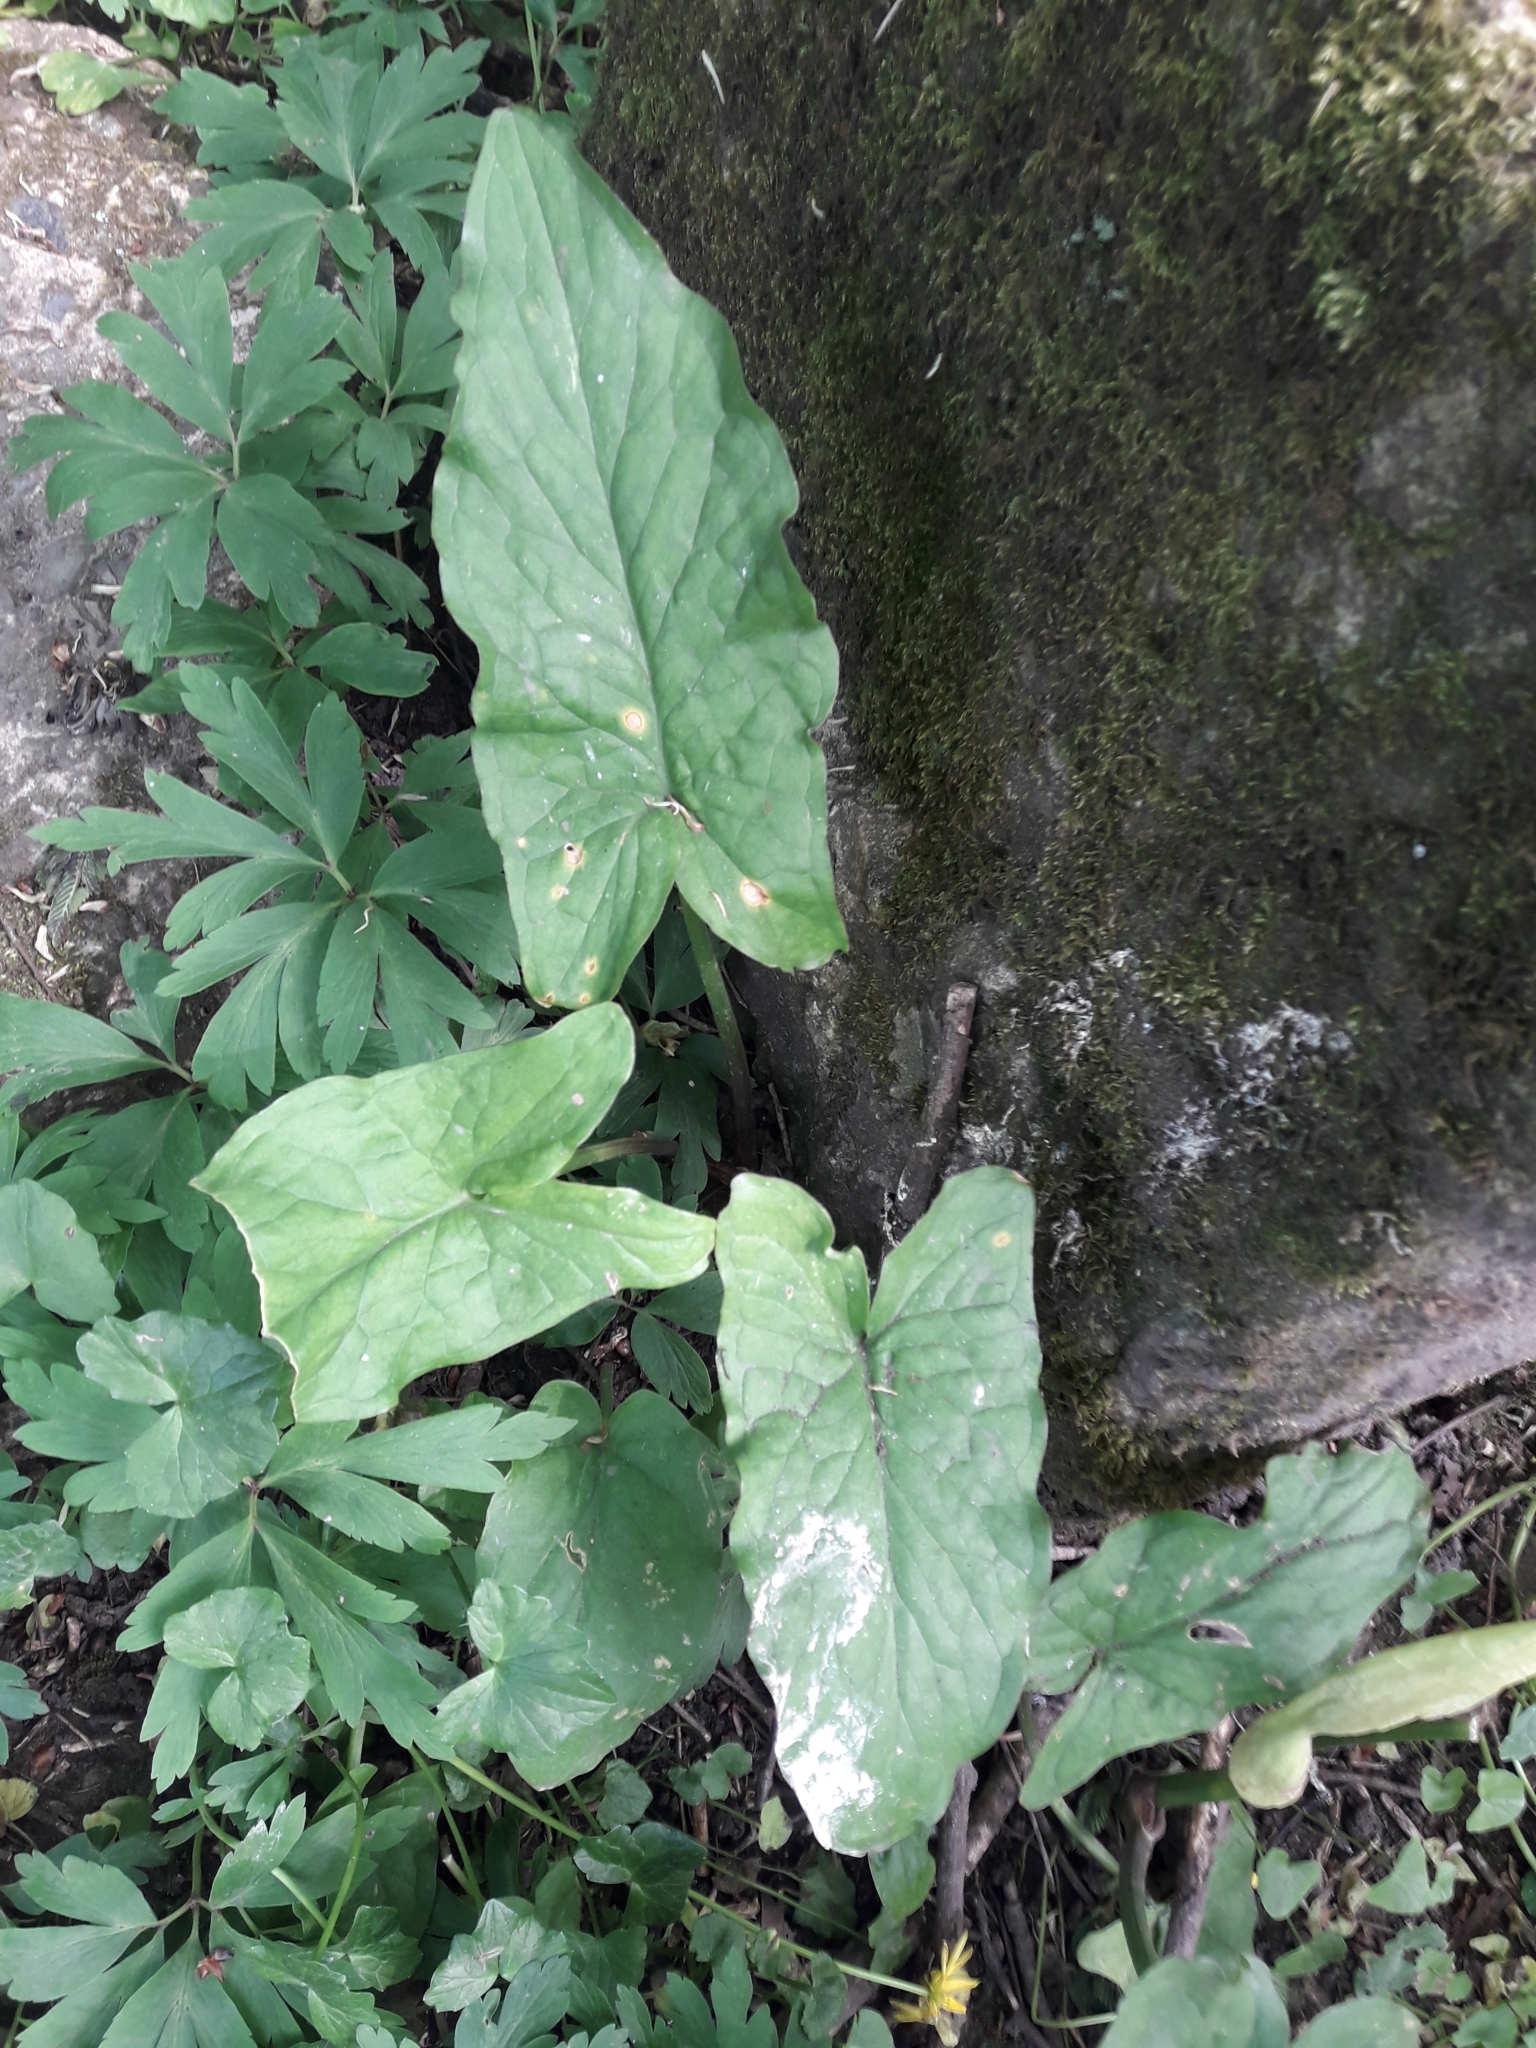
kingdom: Plantae
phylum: Tracheophyta
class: Liliopsida
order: Alismatales
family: Araceae
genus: Arum
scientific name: Arum maculatum
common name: Lords-and-ladies
